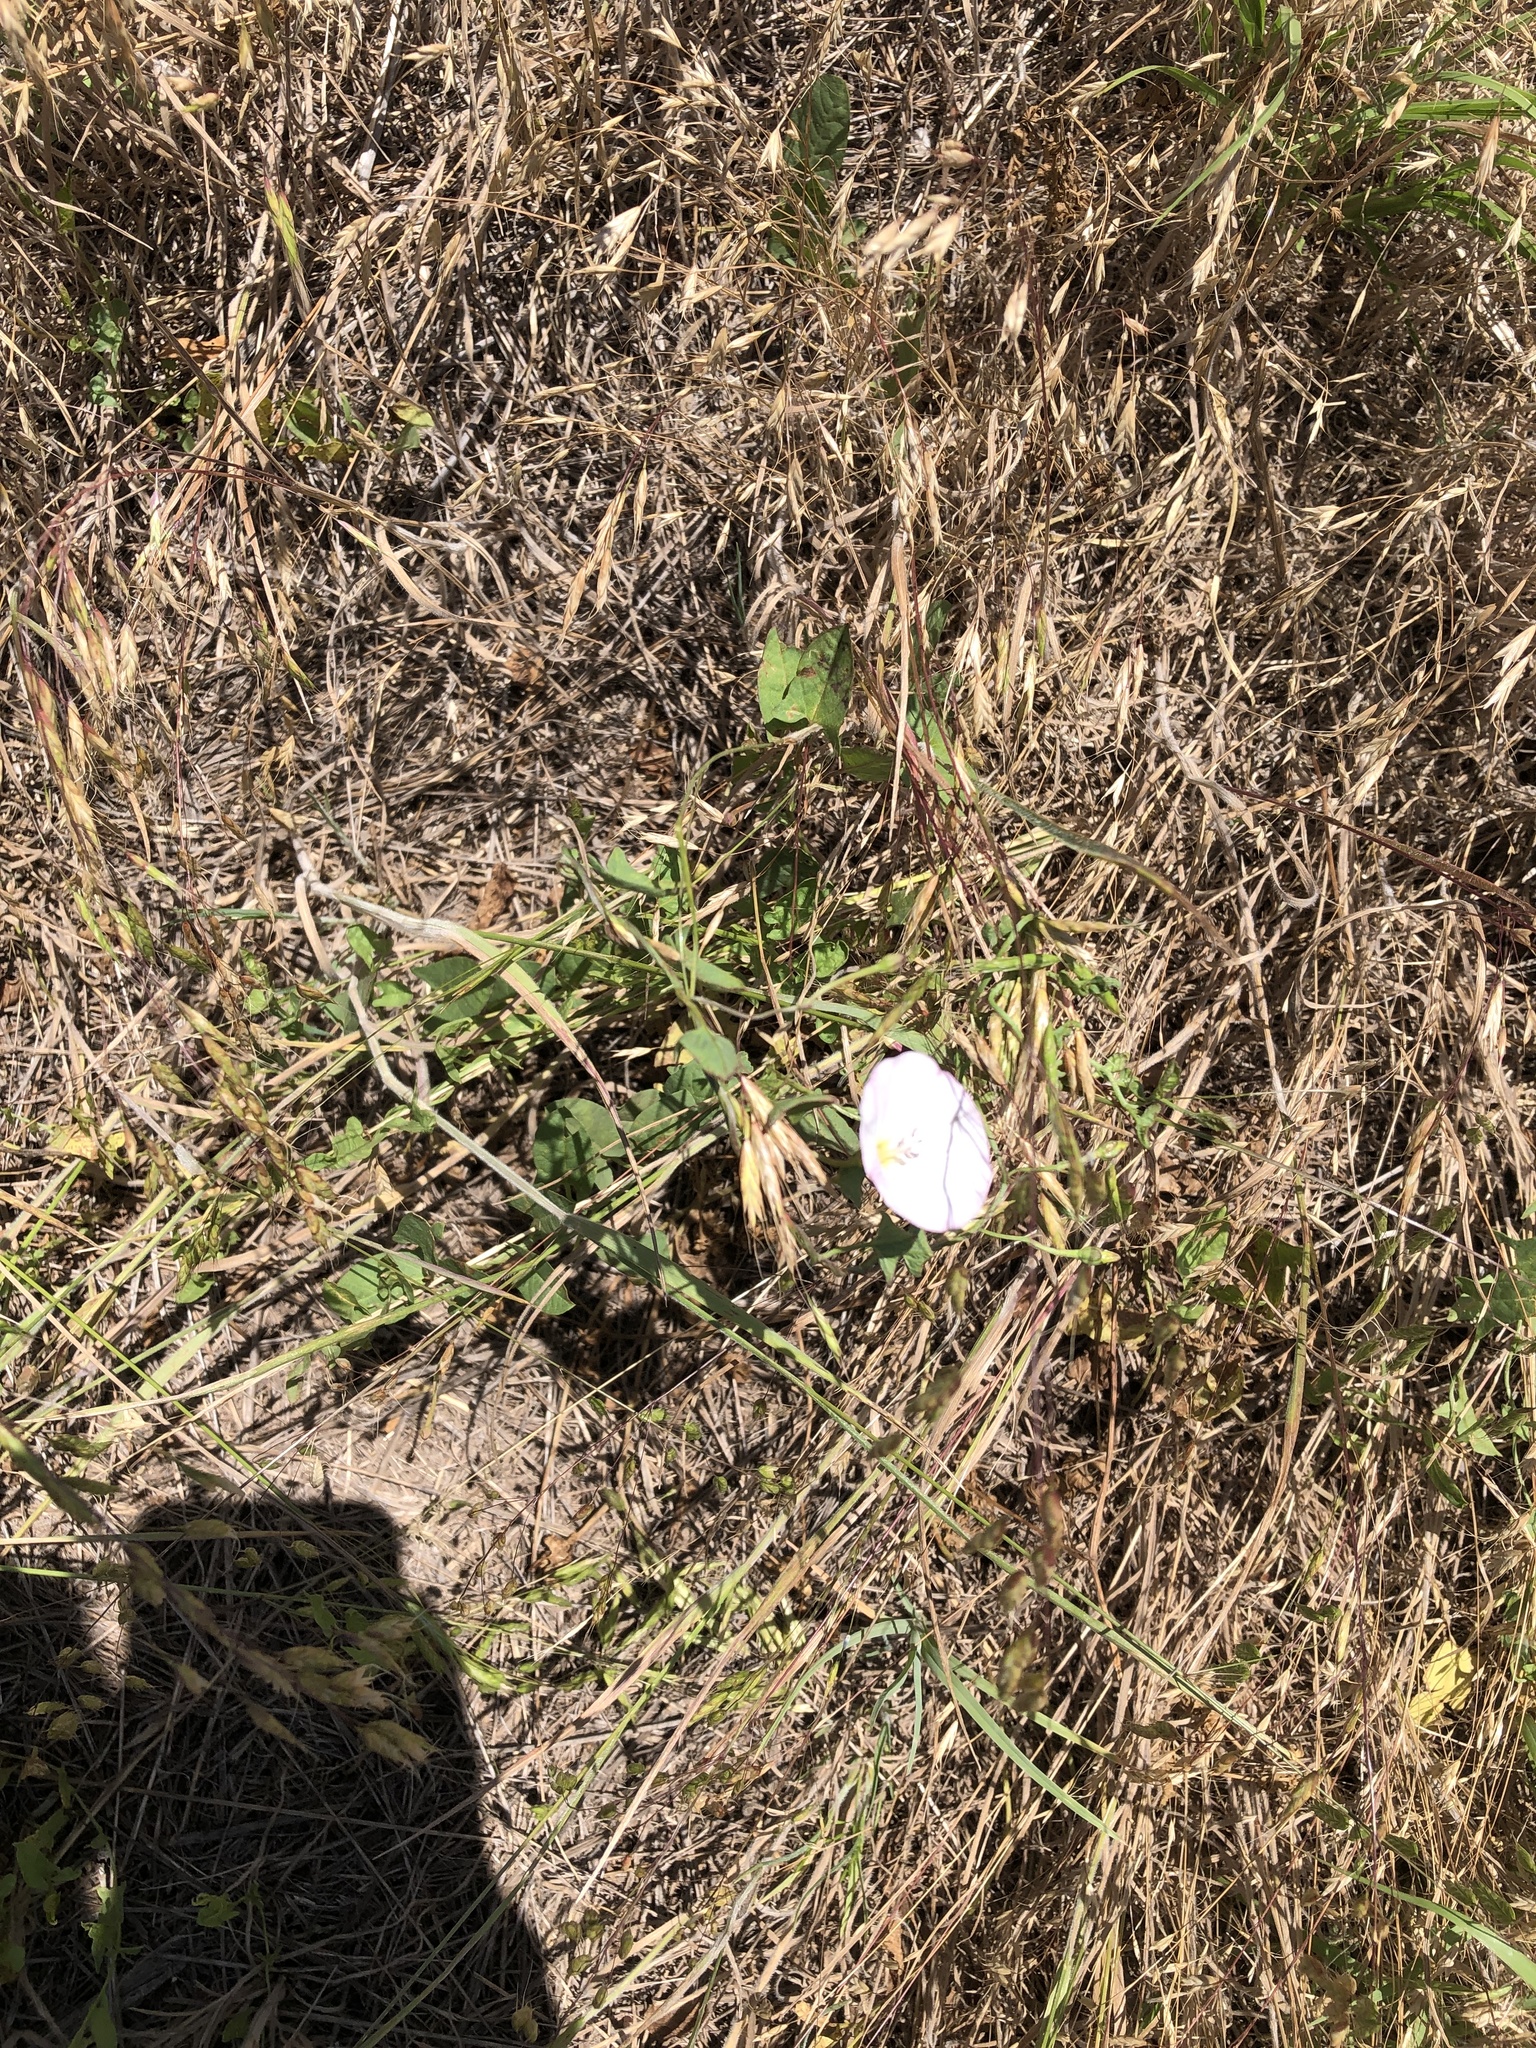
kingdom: Plantae
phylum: Tracheophyta
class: Magnoliopsida
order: Solanales
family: Convolvulaceae
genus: Convolvulus
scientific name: Convolvulus arvensis
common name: Field bindweed
